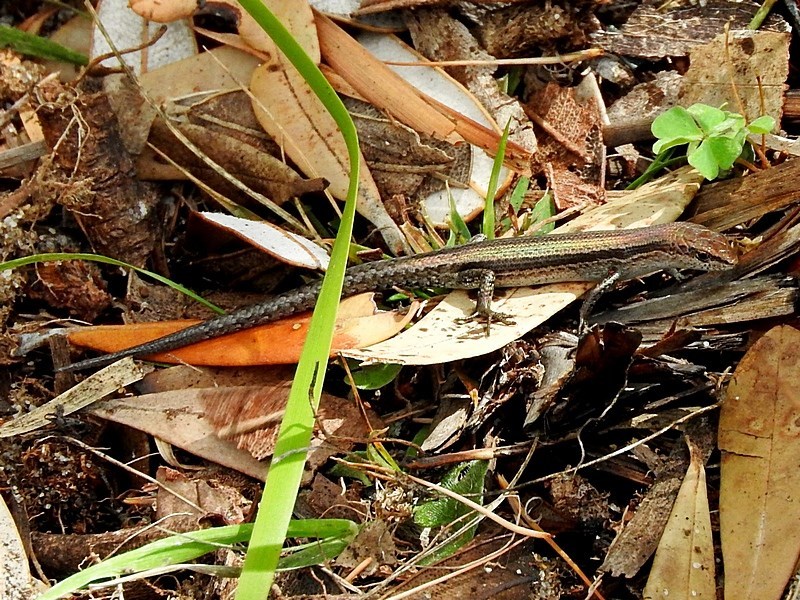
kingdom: Animalia
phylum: Chordata
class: Squamata
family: Scincidae
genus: Lampropholis
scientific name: Lampropholis guichenoti
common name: Garden skink
